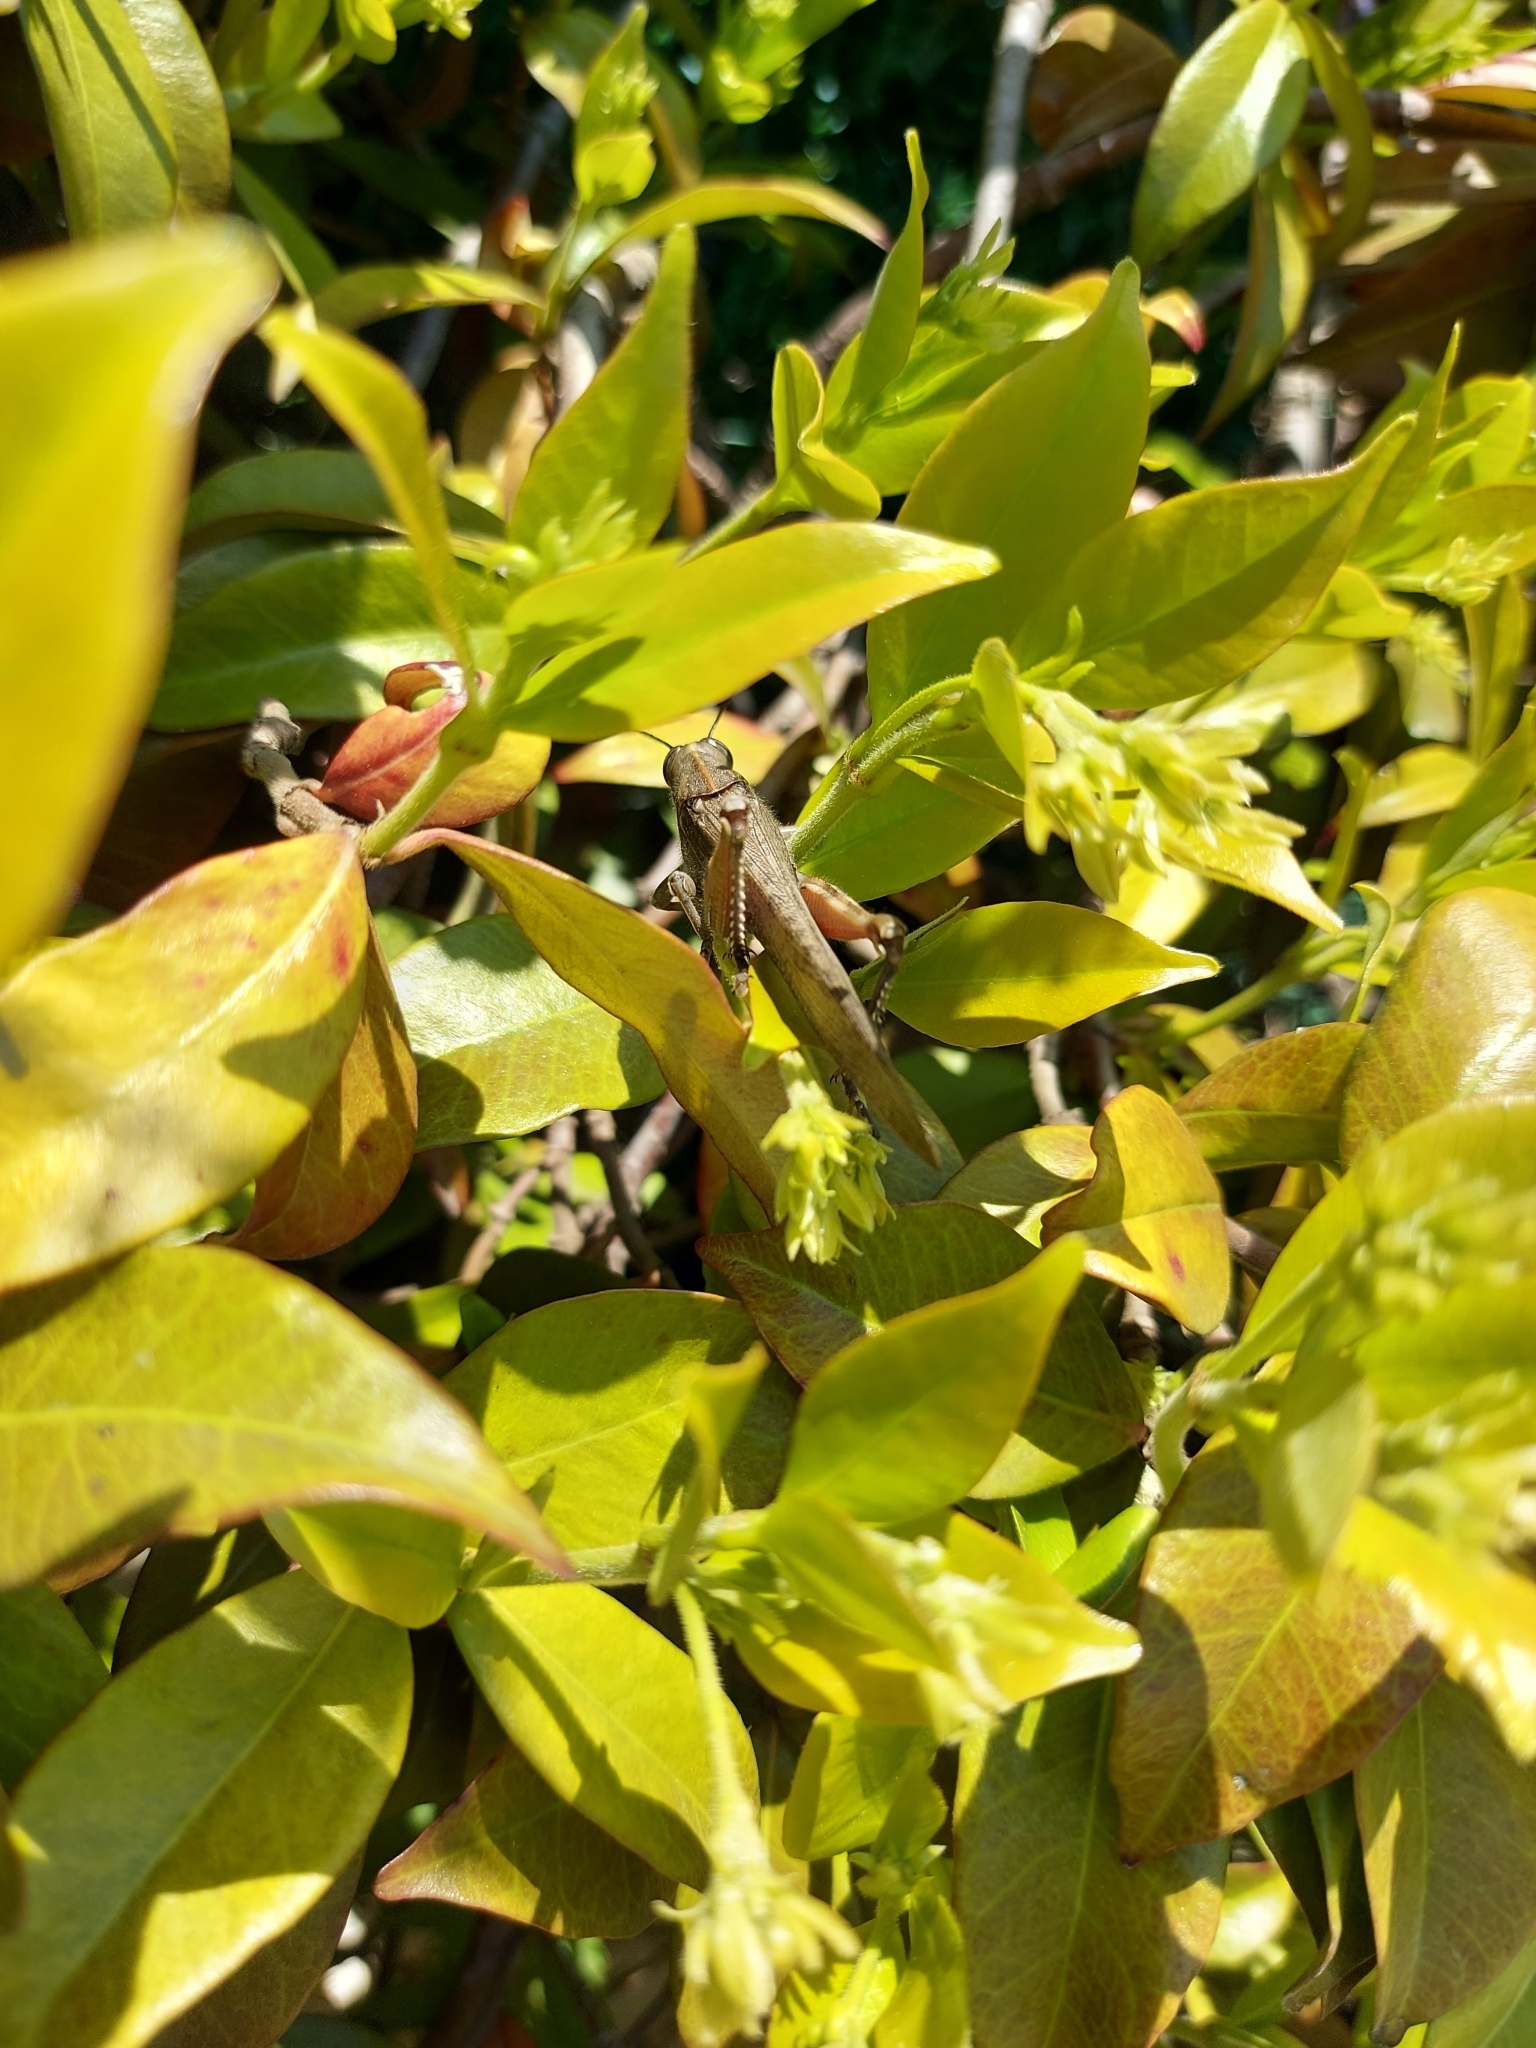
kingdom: Animalia
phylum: Arthropoda
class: Insecta
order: Orthoptera
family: Acrididae
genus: Anacridium
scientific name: Anacridium aegyptium
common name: Egyptian grasshopper
